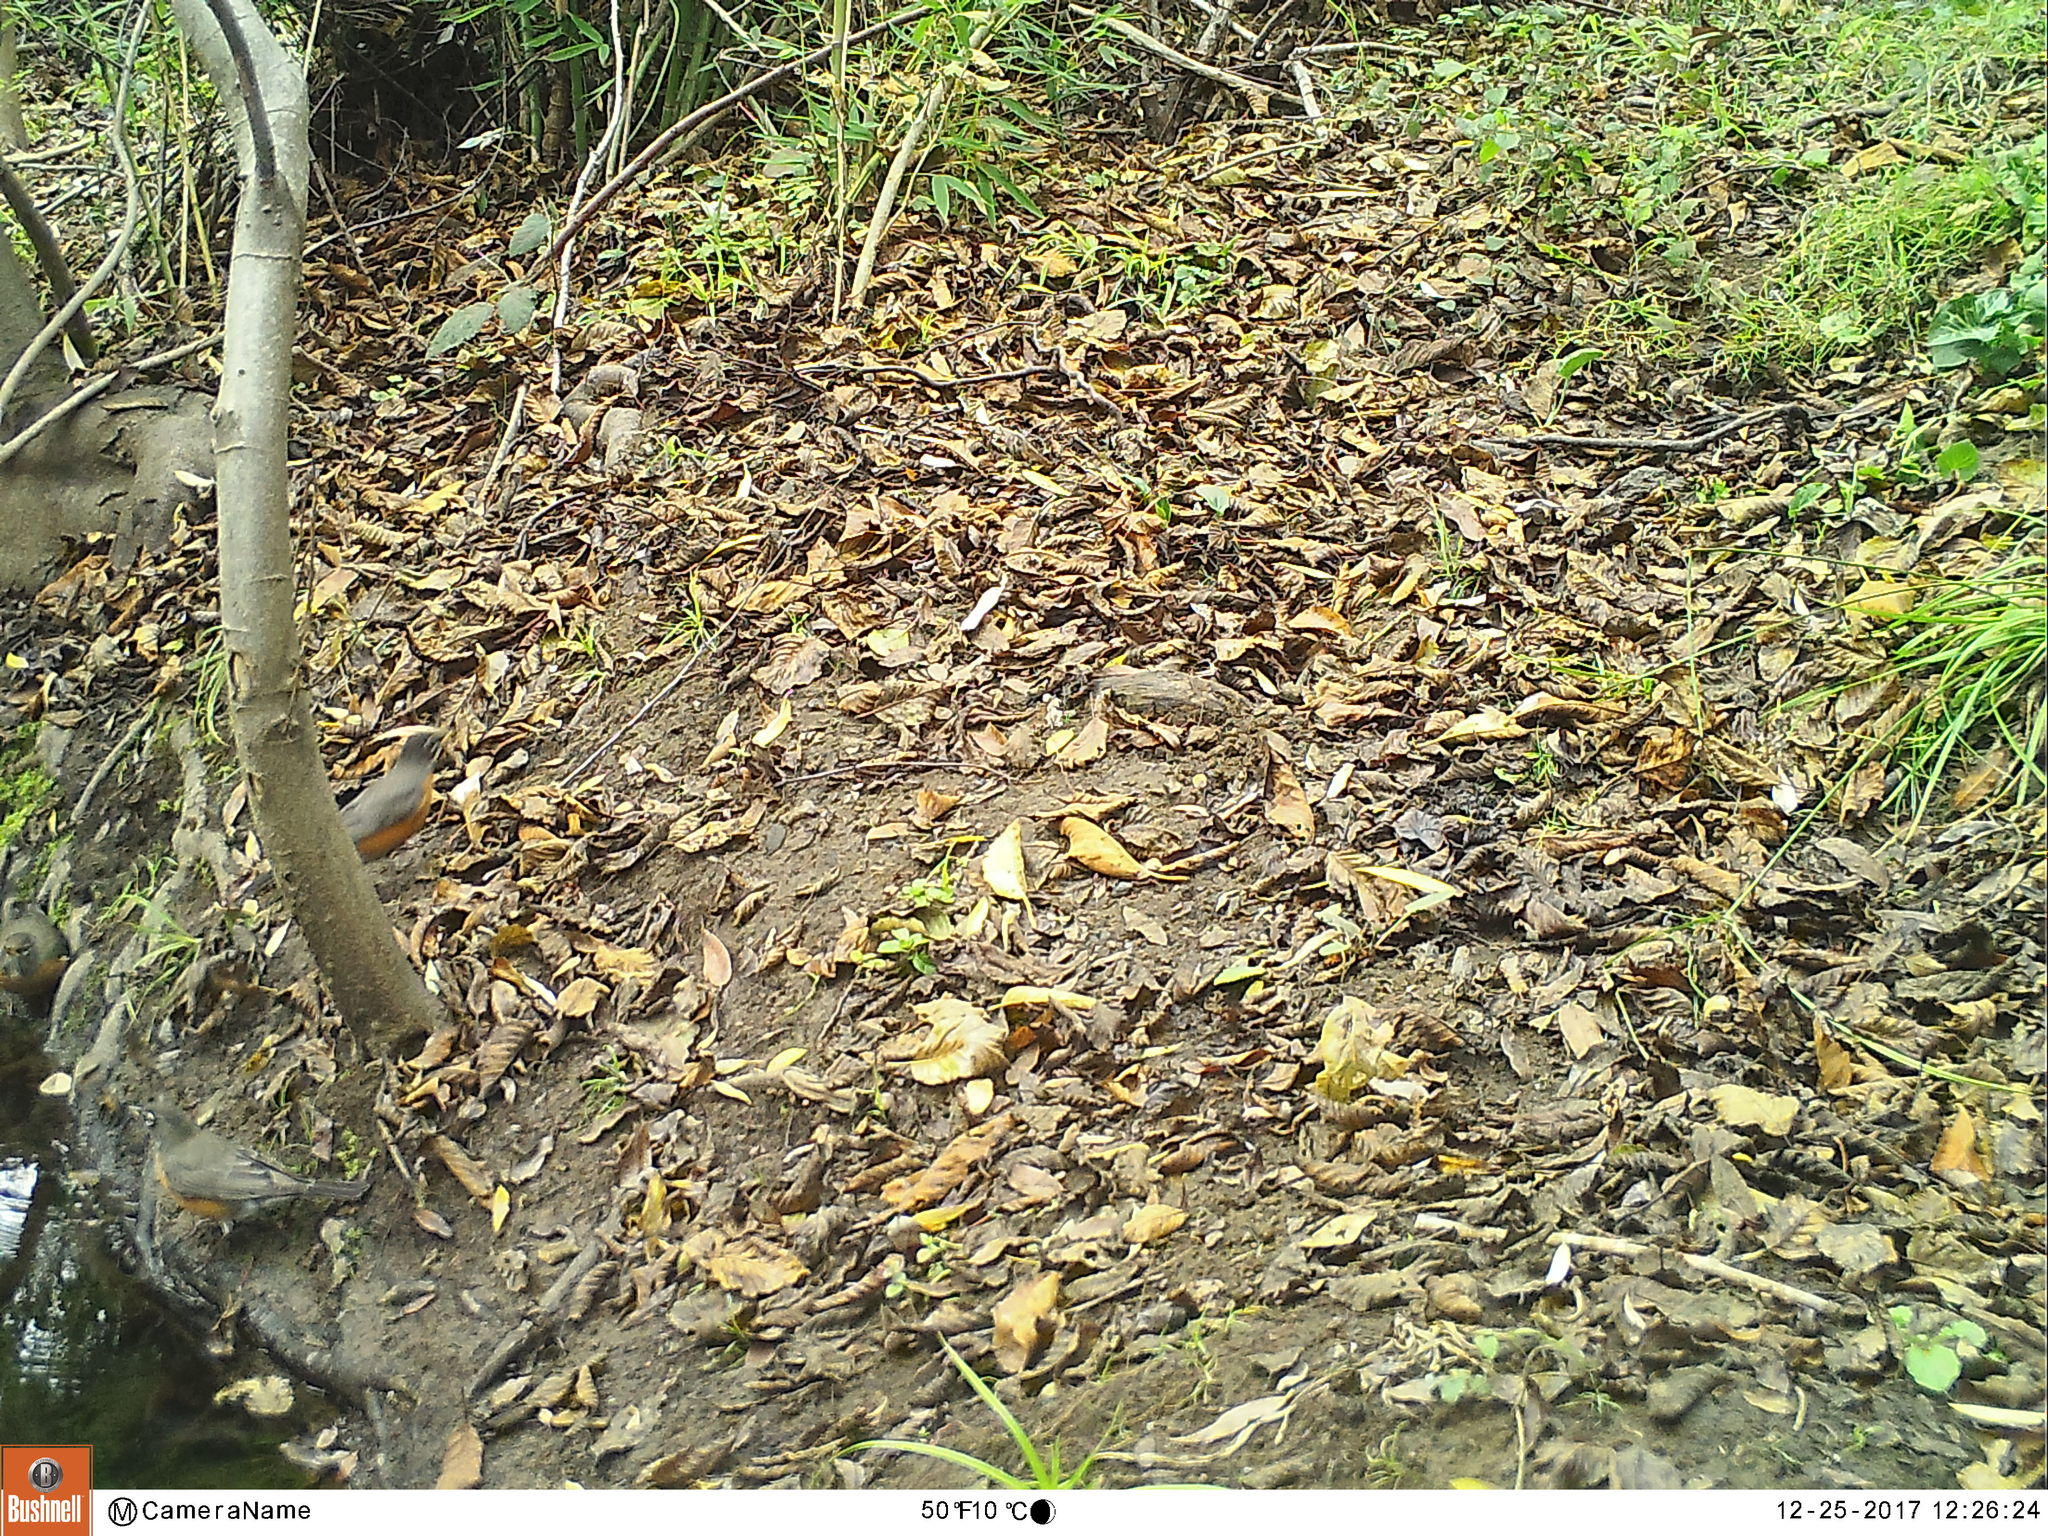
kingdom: Animalia
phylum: Chordata
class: Aves
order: Passeriformes
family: Turdidae
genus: Turdus
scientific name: Turdus migratorius
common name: American robin
